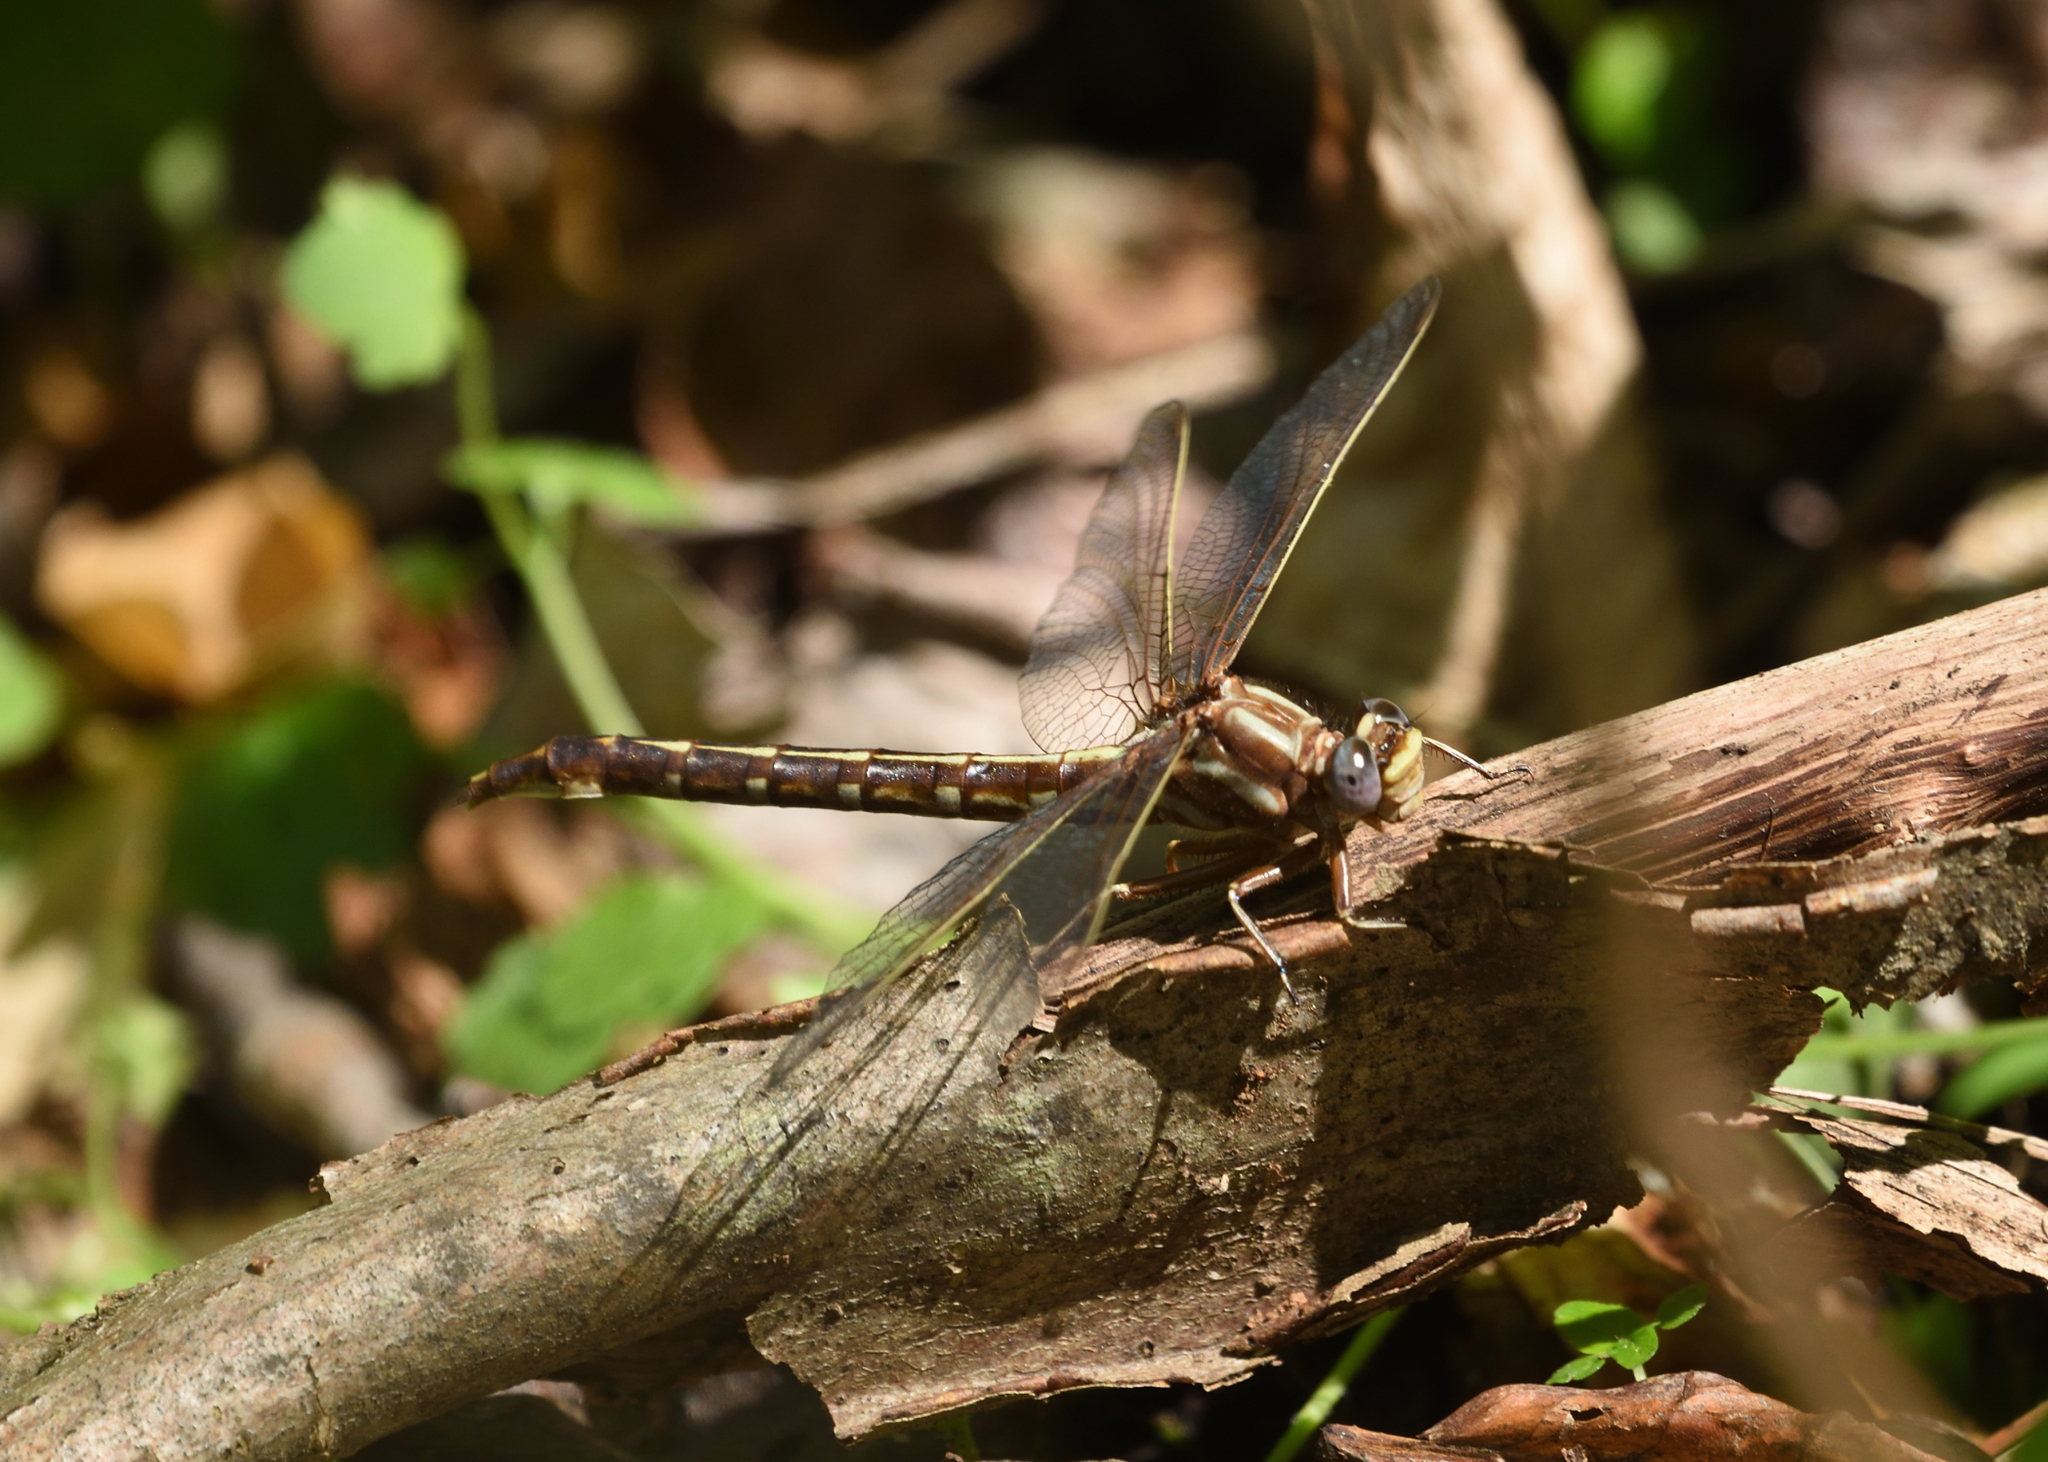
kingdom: Animalia
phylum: Arthropoda
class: Insecta
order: Odonata
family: Gomphidae
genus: Phanogomphus
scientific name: Phanogomphus lividus
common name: Ashy clubtail
